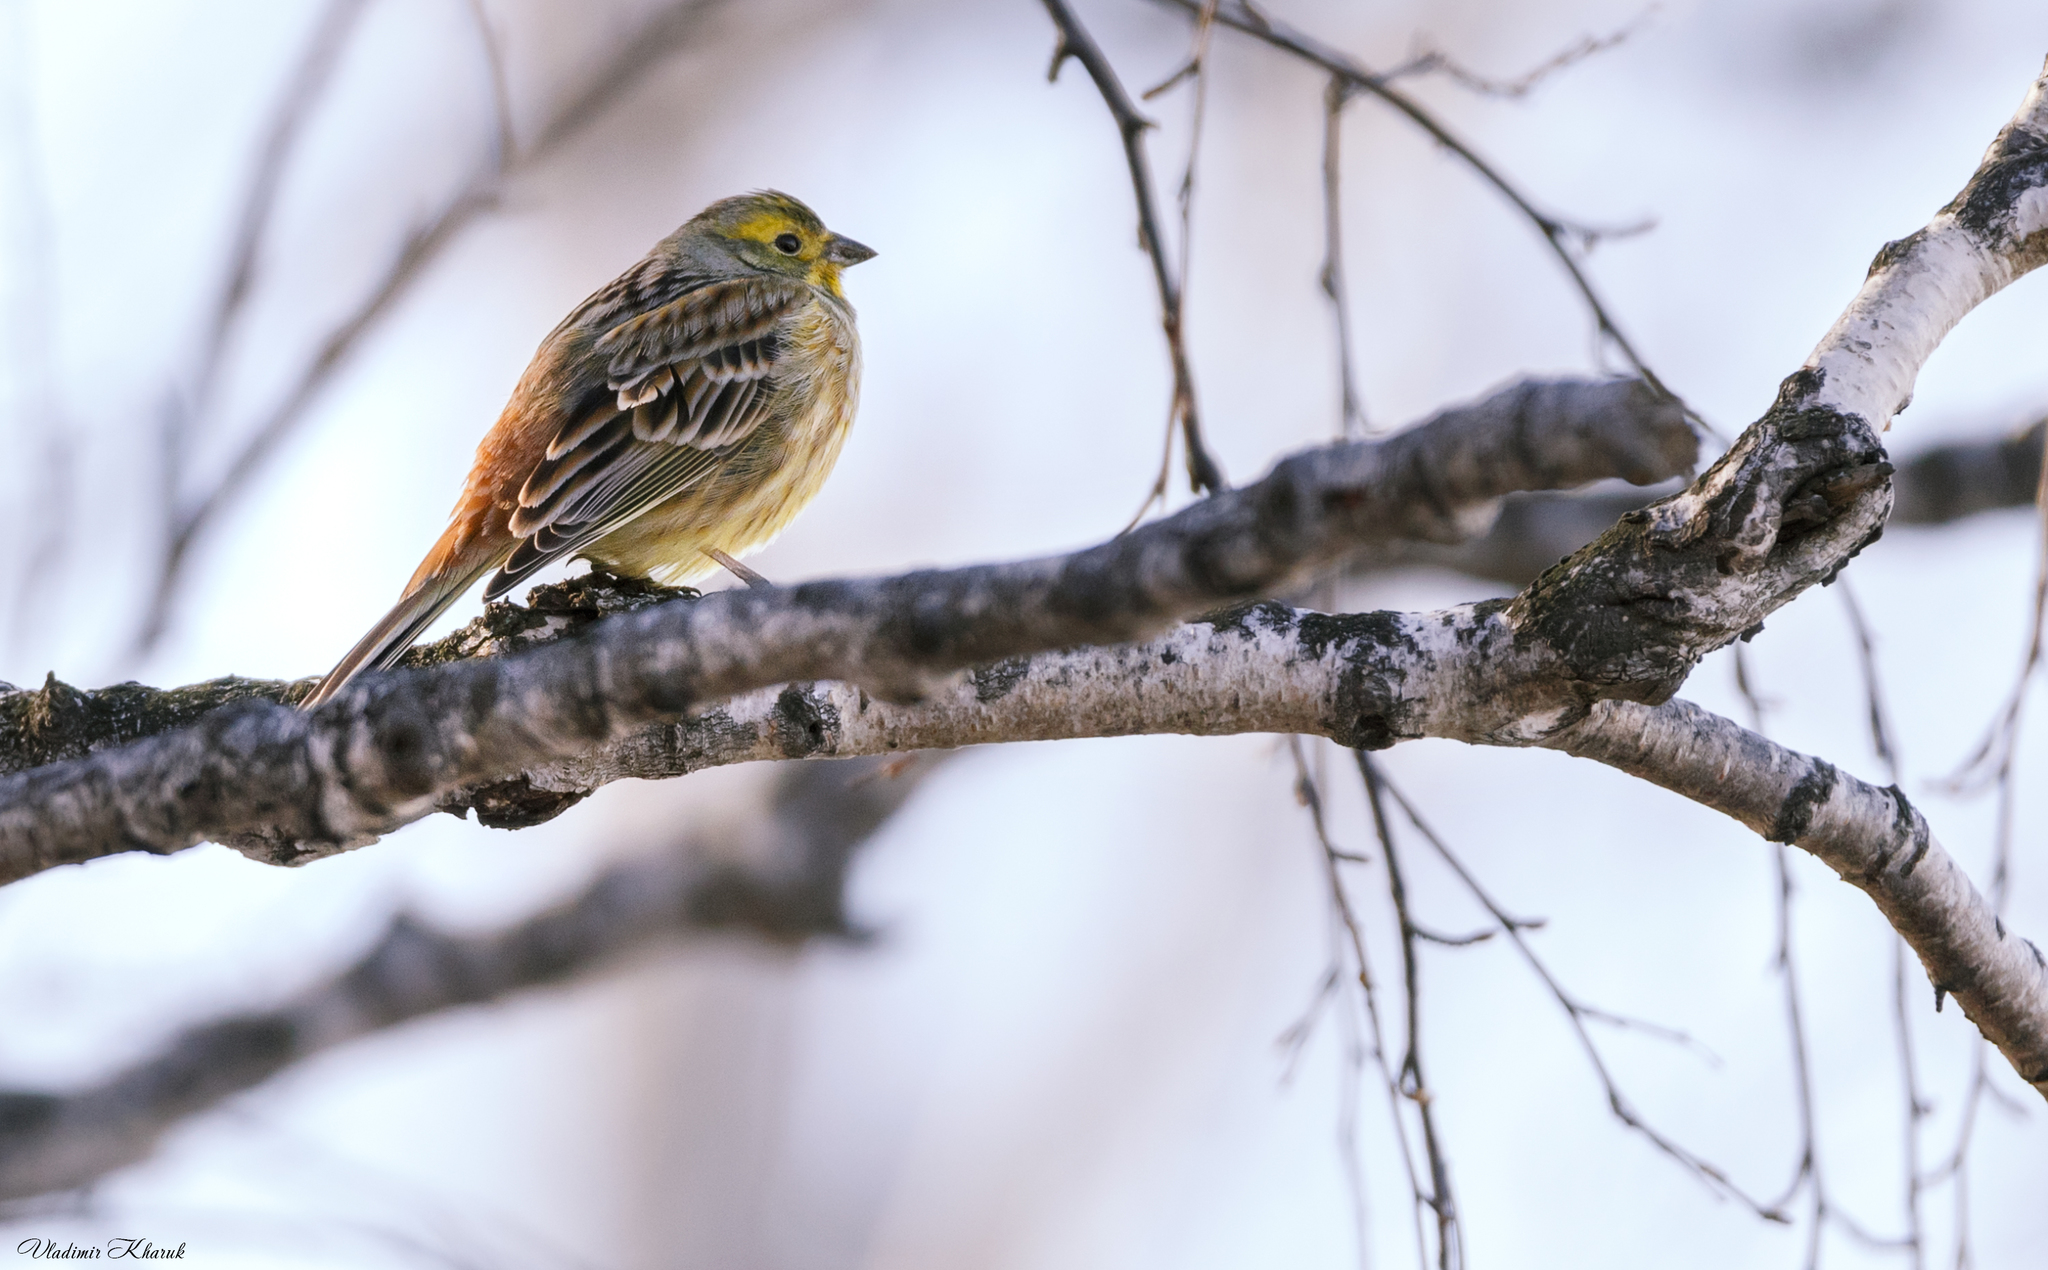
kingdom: Animalia
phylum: Chordata
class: Aves
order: Passeriformes
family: Emberizidae
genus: Emberiza
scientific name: Emberiza citrinella
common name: Yellowhammer
